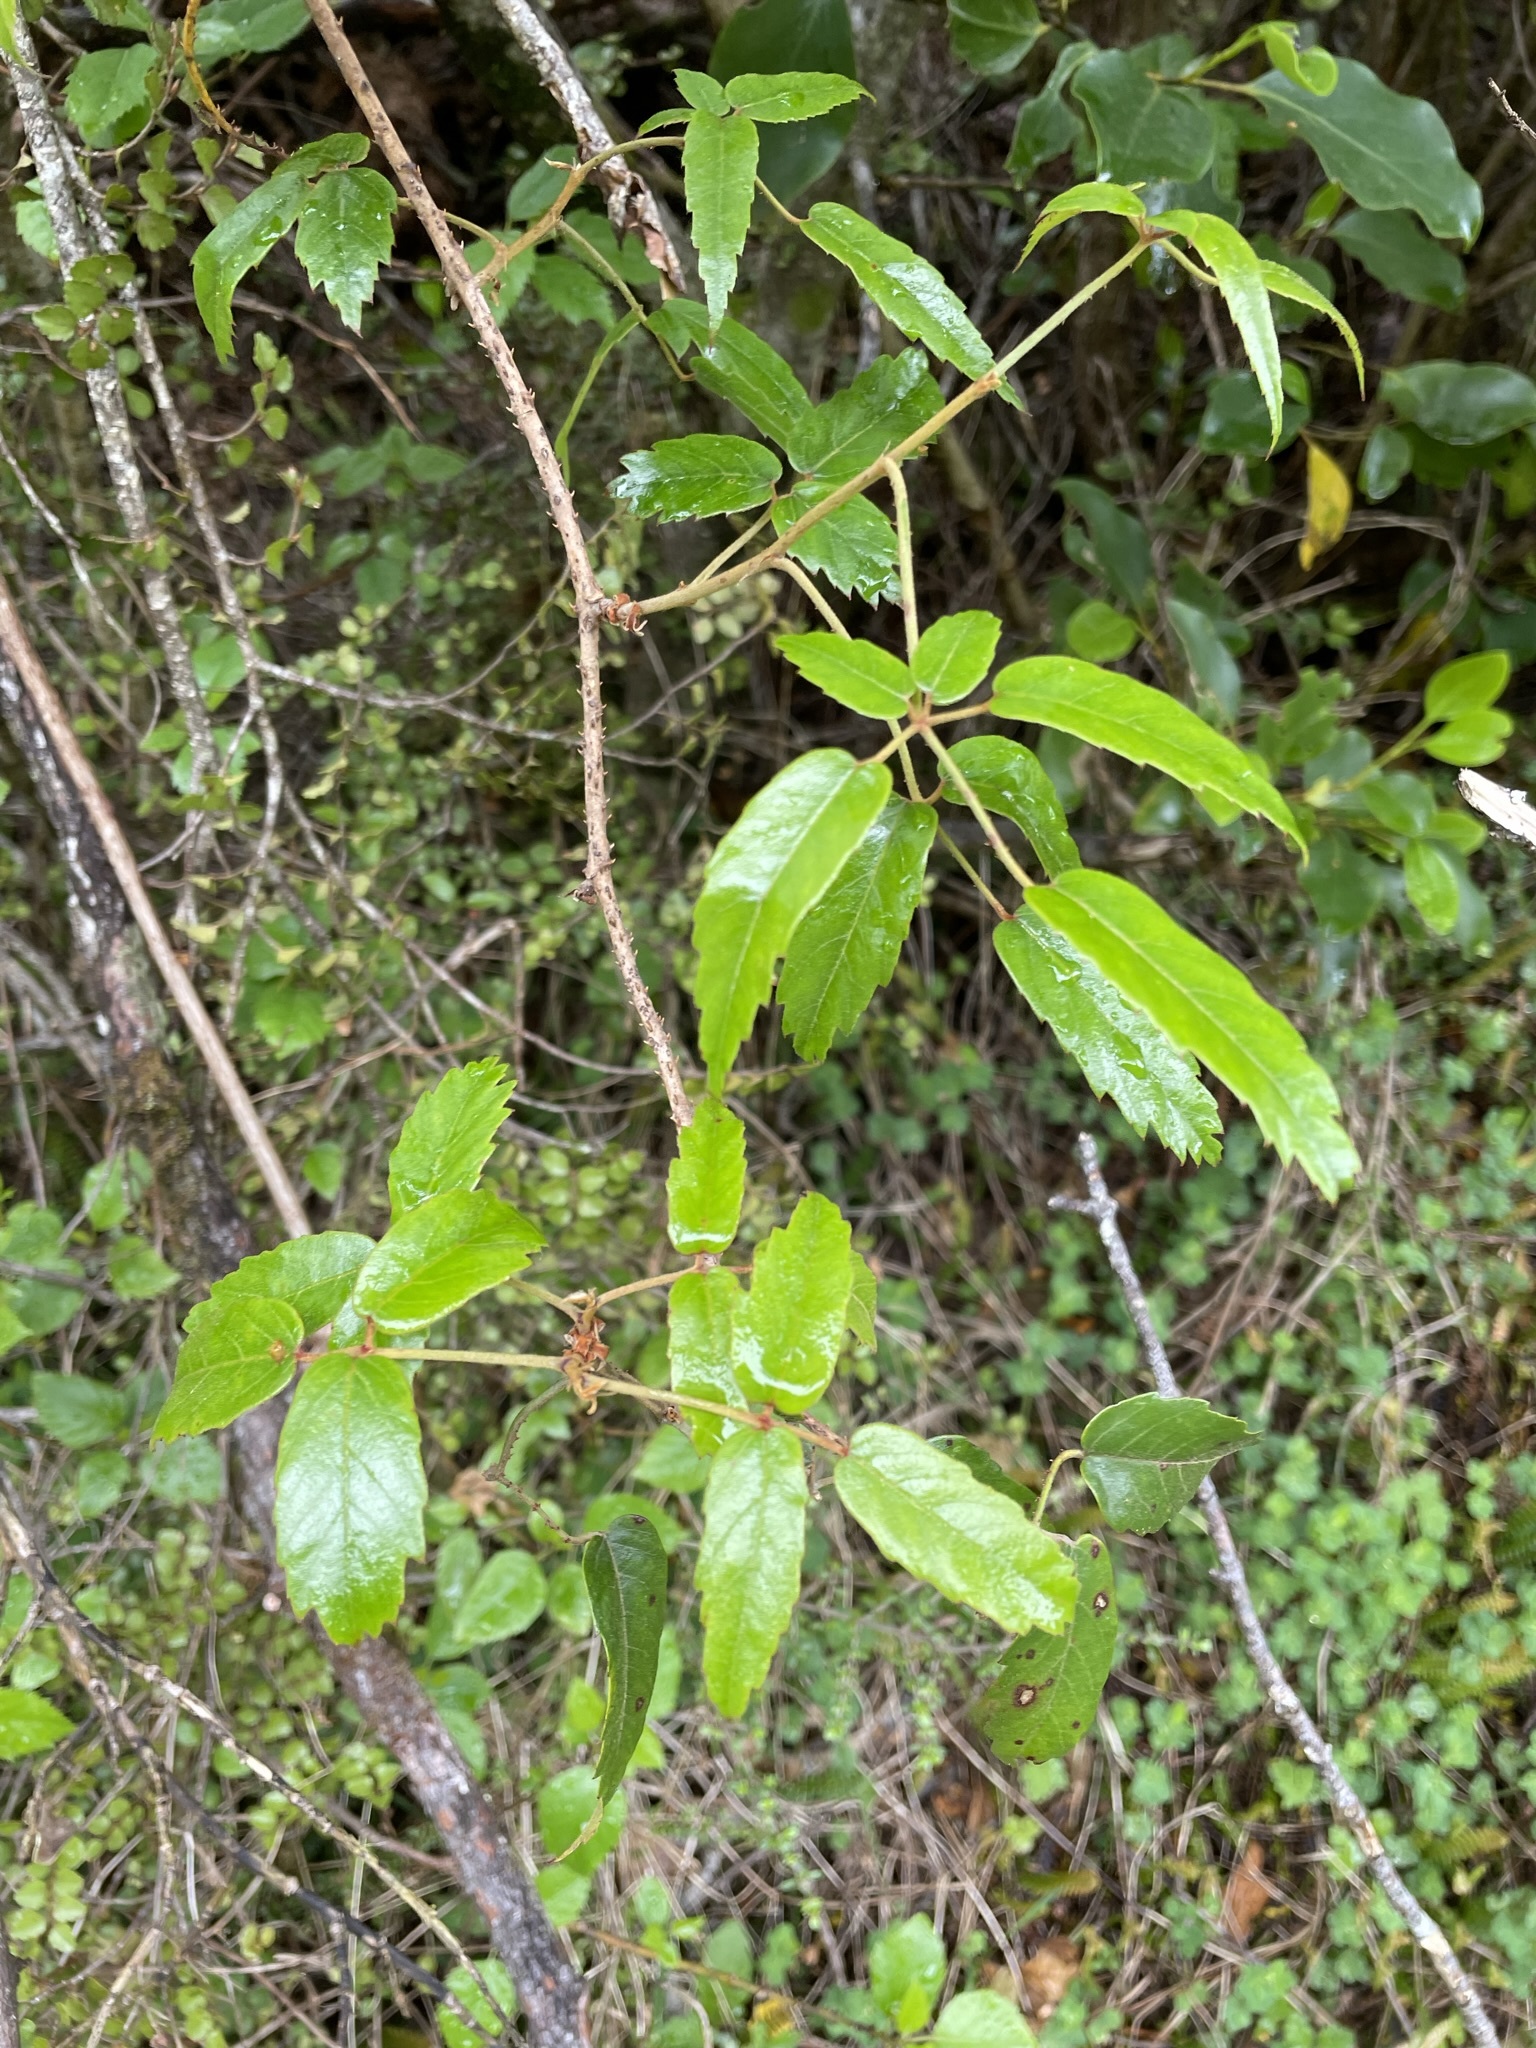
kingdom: Plantae
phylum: Tracheophyta
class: Magnoliopsida
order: Rosales
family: Rosaceae
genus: Rubus
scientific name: Rubus schmidelioides
